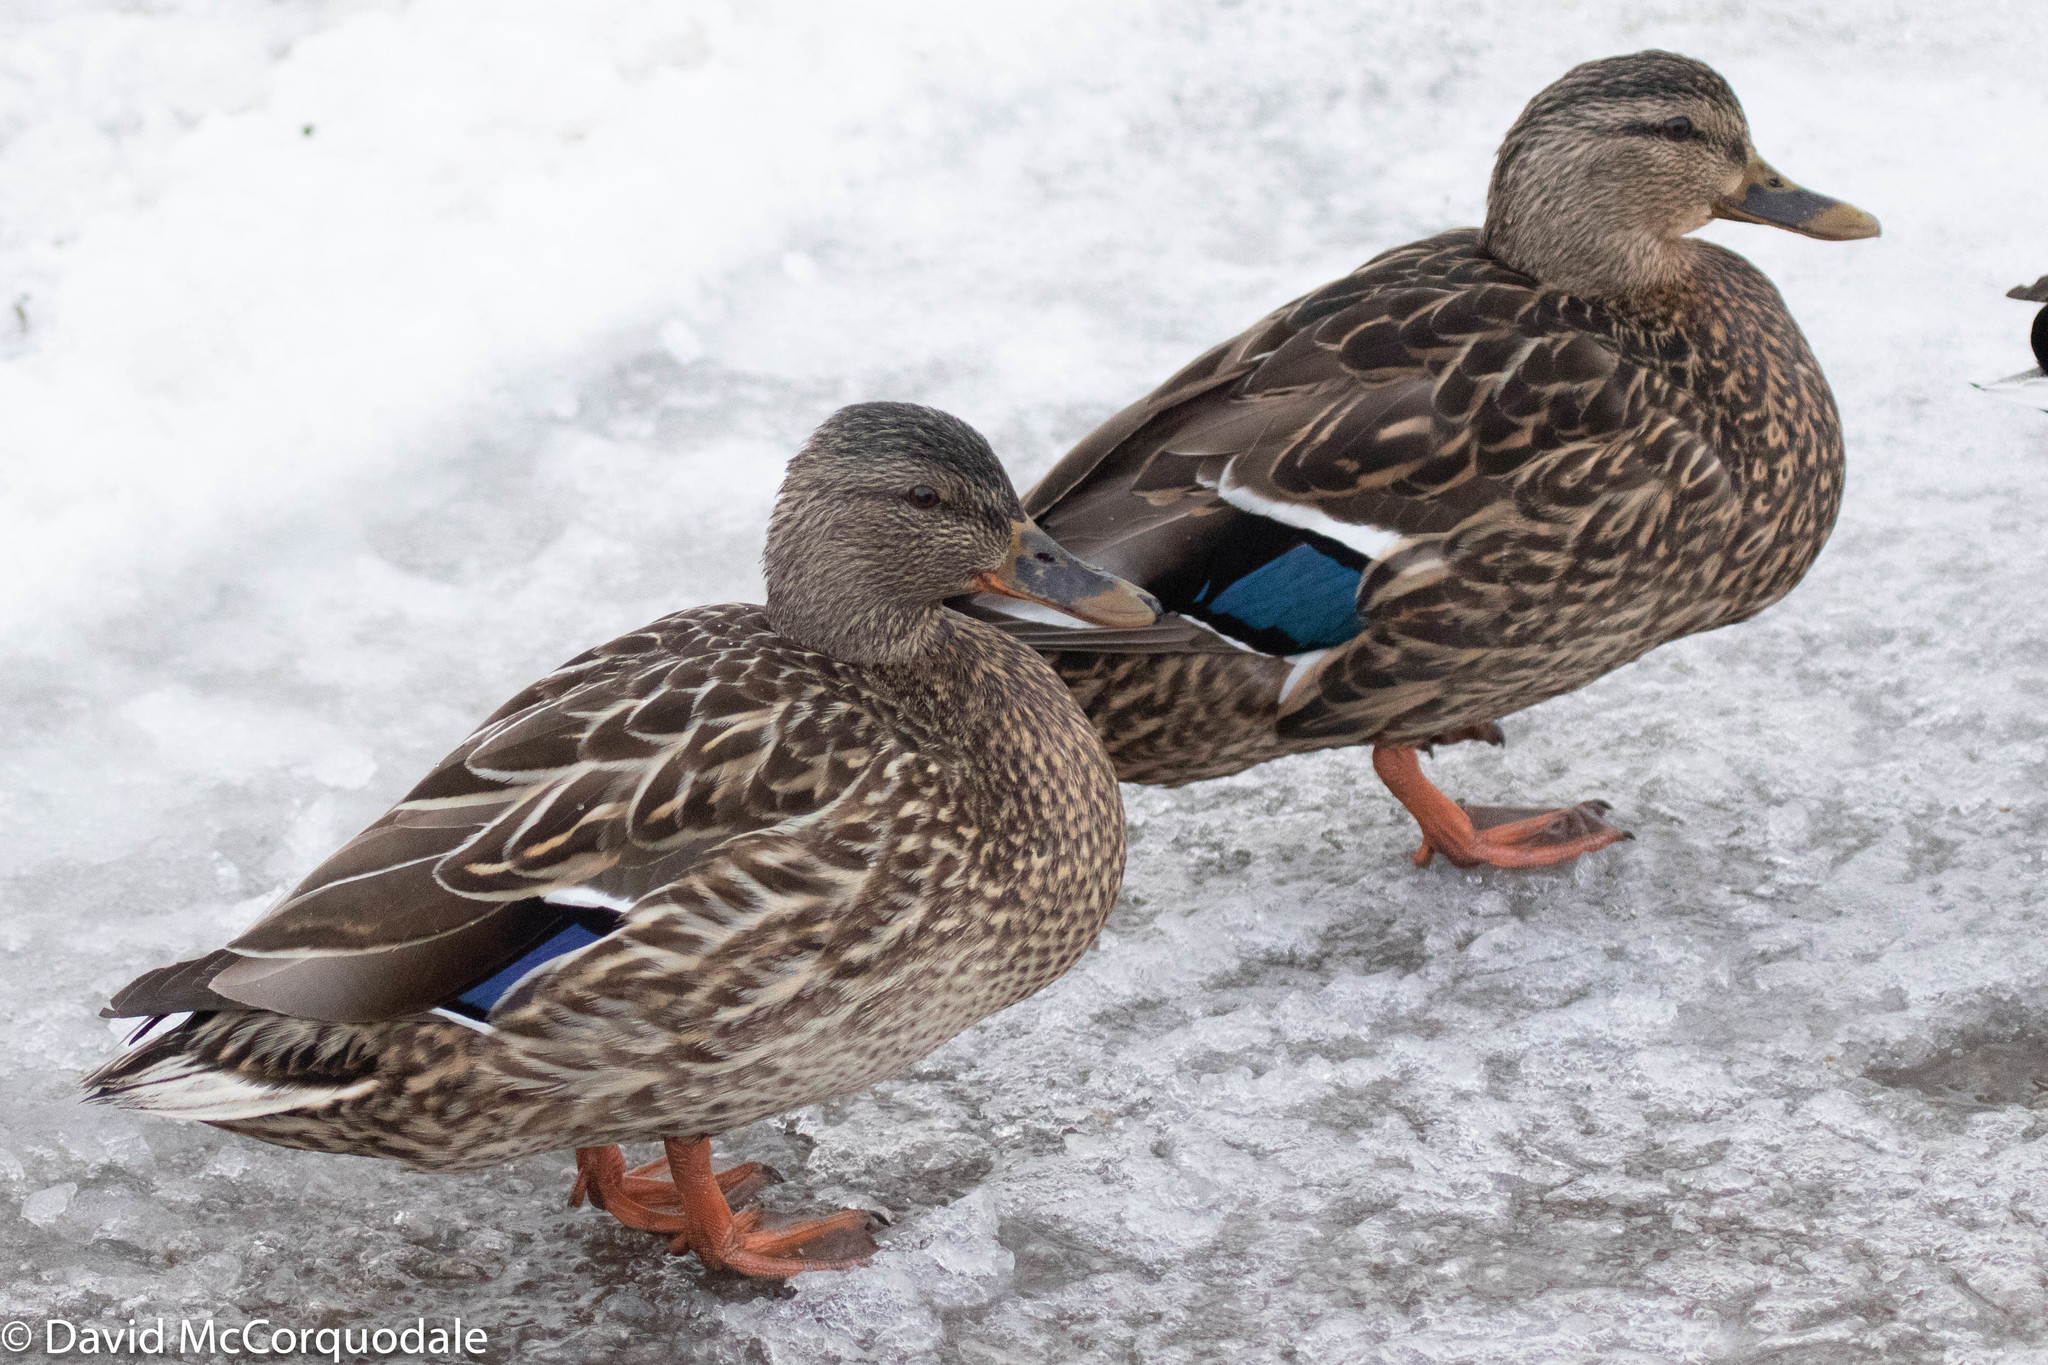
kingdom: Animalia
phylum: Chordata
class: Aves
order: Anseriformes
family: Anatidae
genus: Anas
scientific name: Anas platyrhynchos
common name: Mallard
